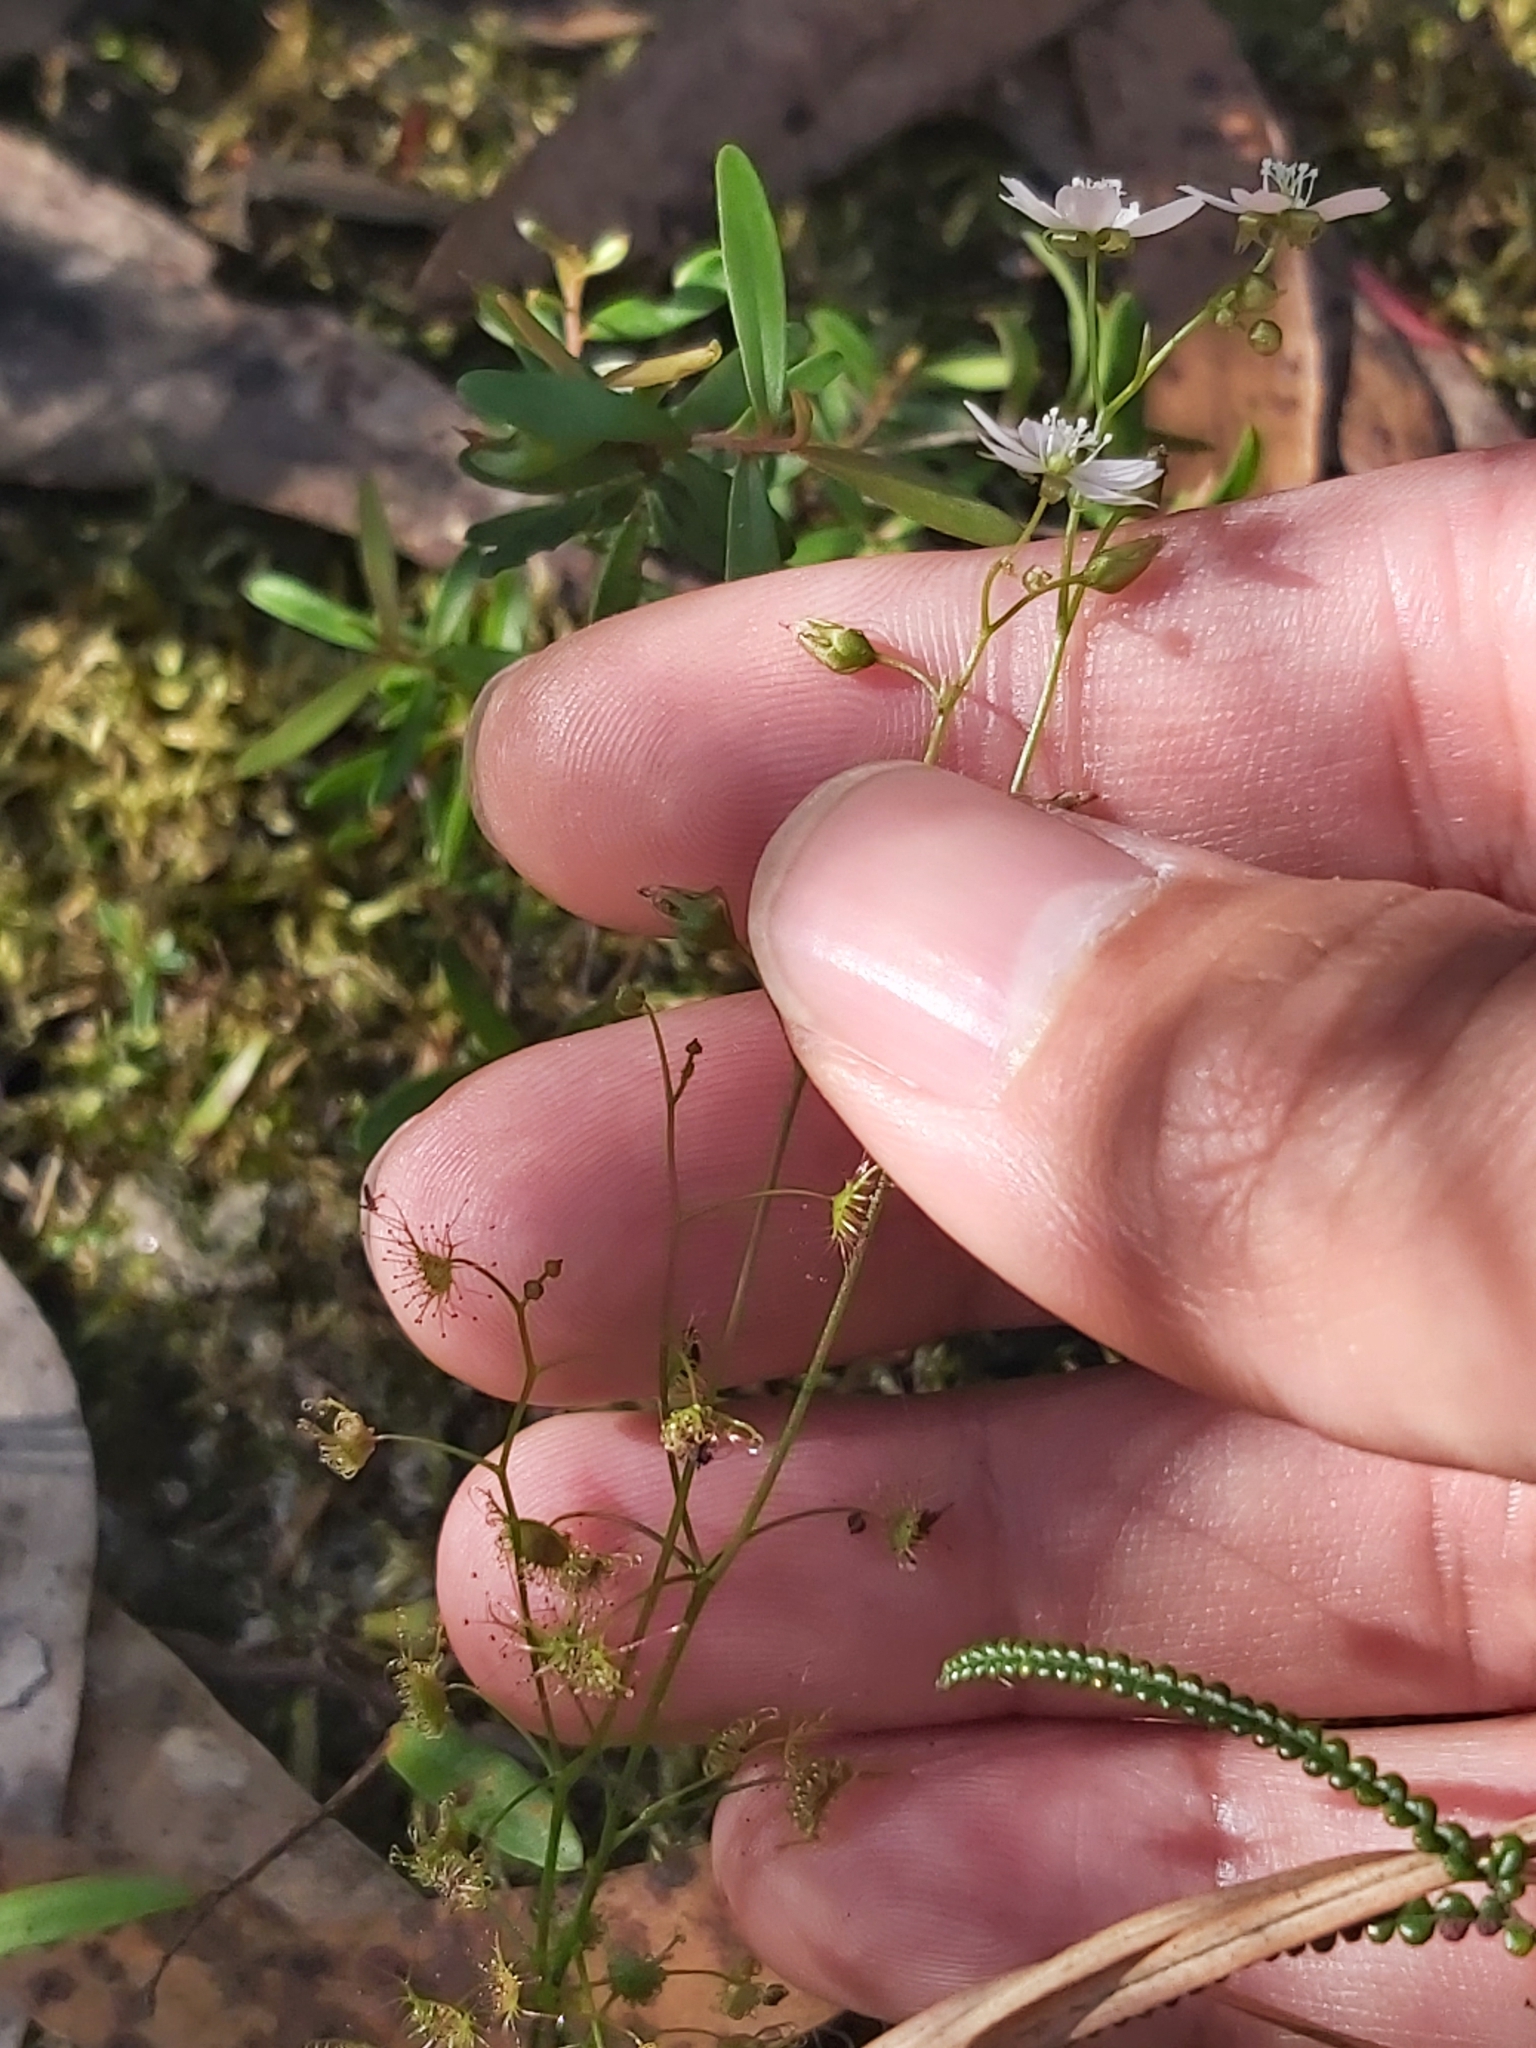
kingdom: Plantae
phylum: Tracheophyta
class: Magnoliopsida
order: Caryophyllales
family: Droseraceae
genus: Drosera
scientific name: Drosera peltata
